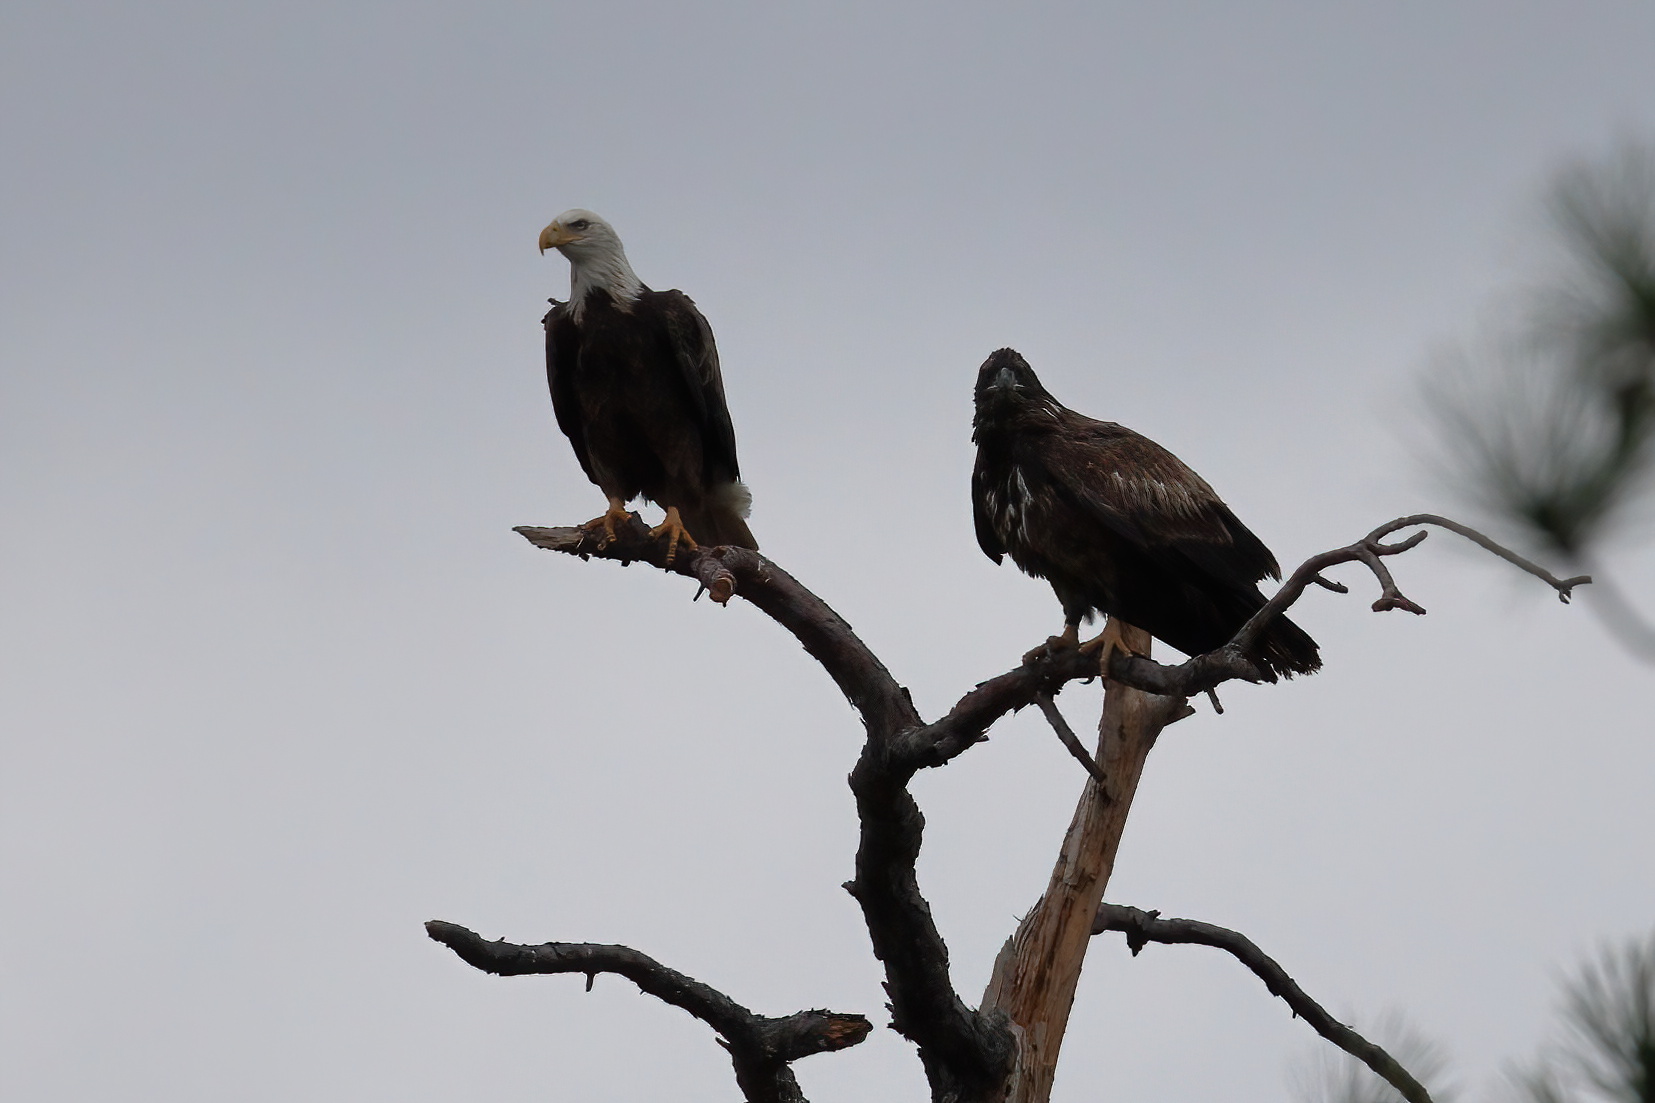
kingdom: Animalia
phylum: Chordata
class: Aves
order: Accipitriformes
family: Accipitridae
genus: Haliaeetus
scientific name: Haliaeetus leucocephalus
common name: Bald eagle
